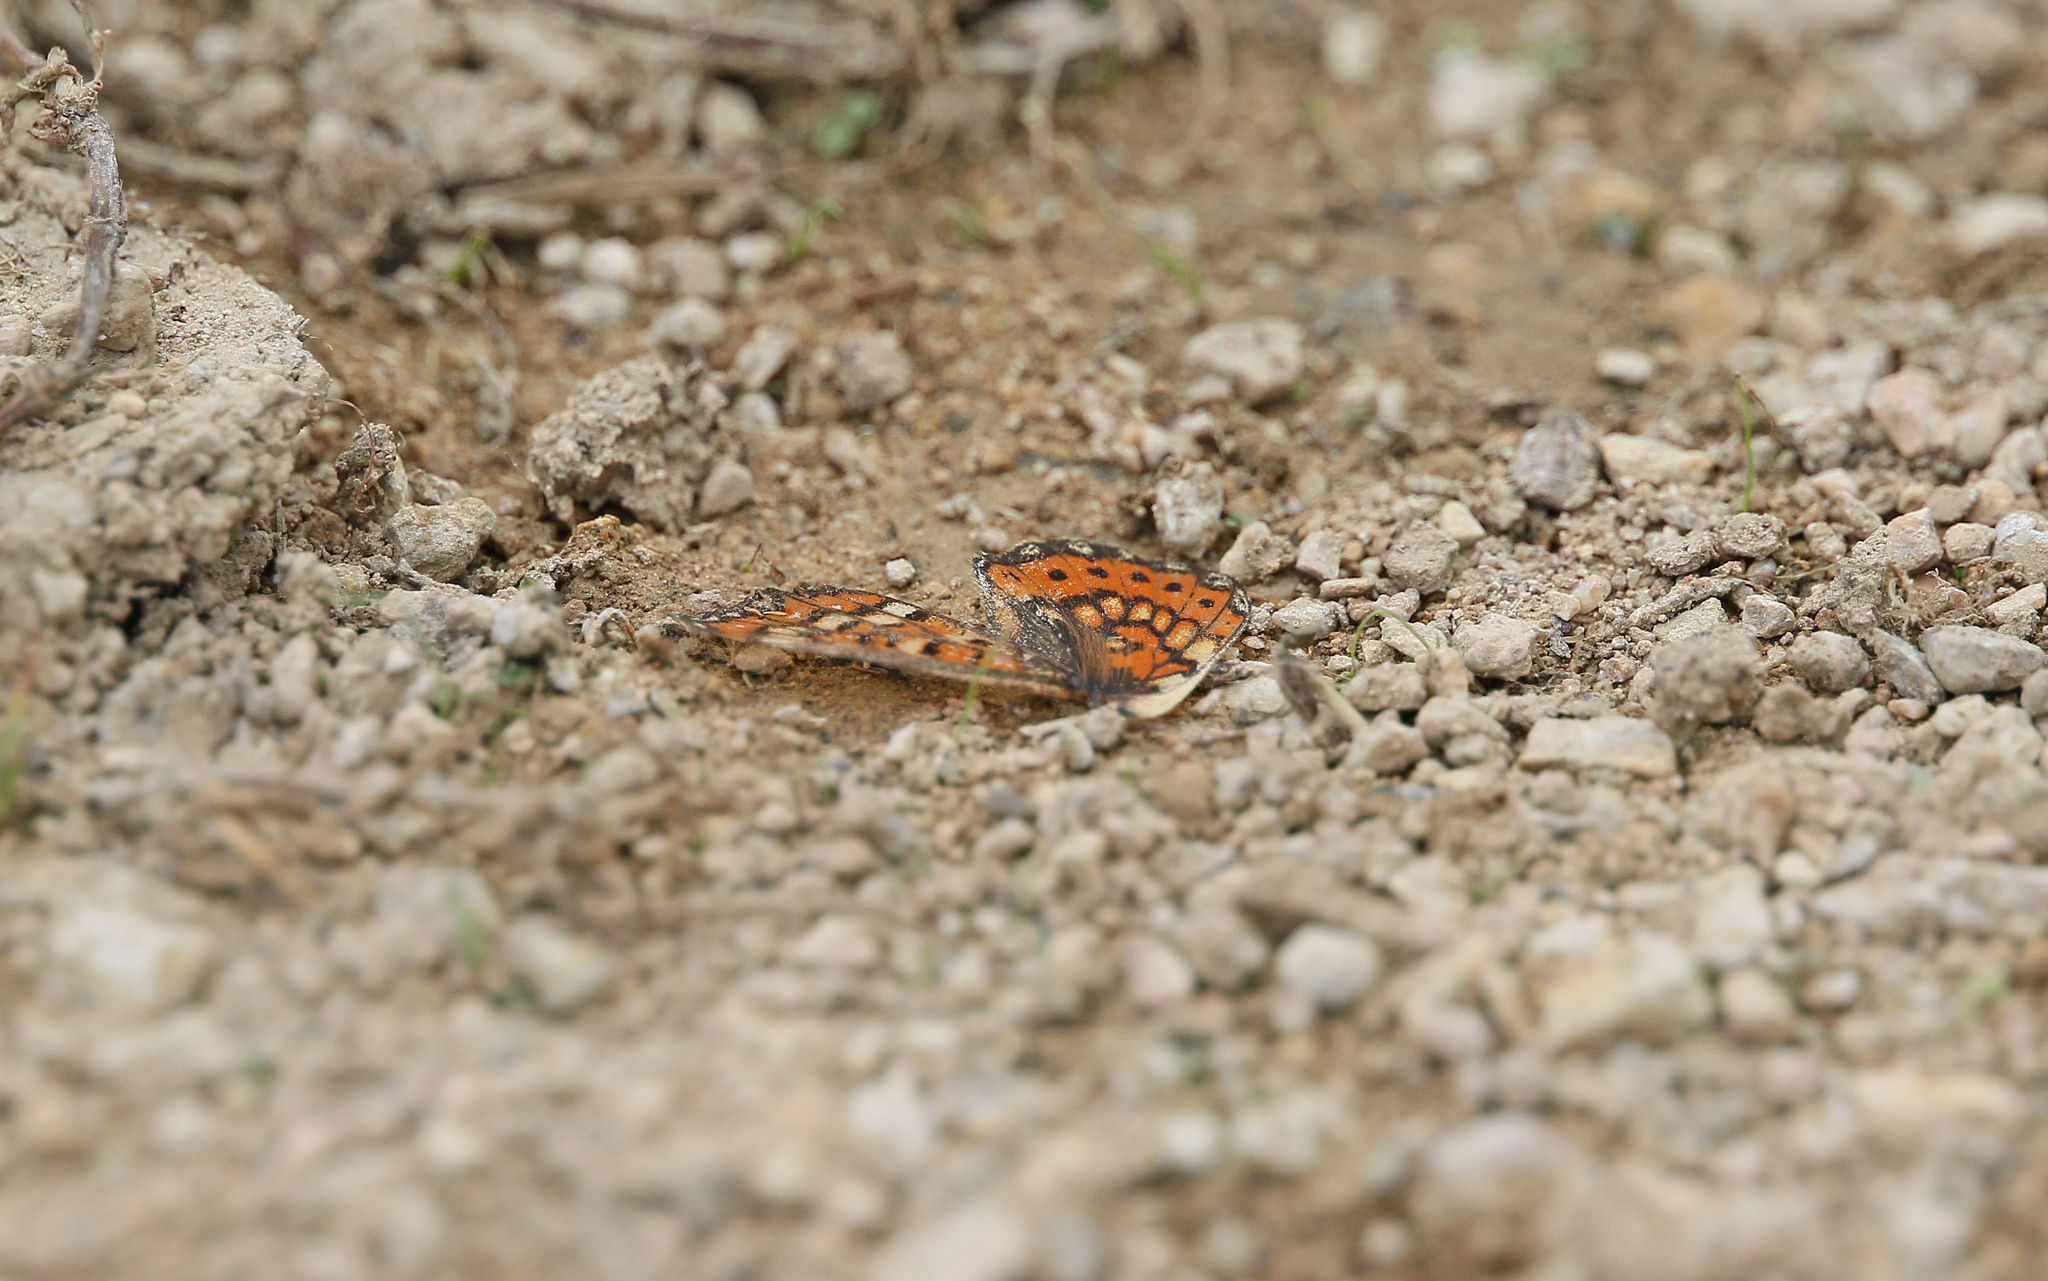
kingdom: Animalia
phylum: Arthropoda
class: Insecta
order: Lepidoptera
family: Nymphalidae
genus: Euphydryas
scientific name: Euphydryas desfontainii
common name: Spanish fritillary
